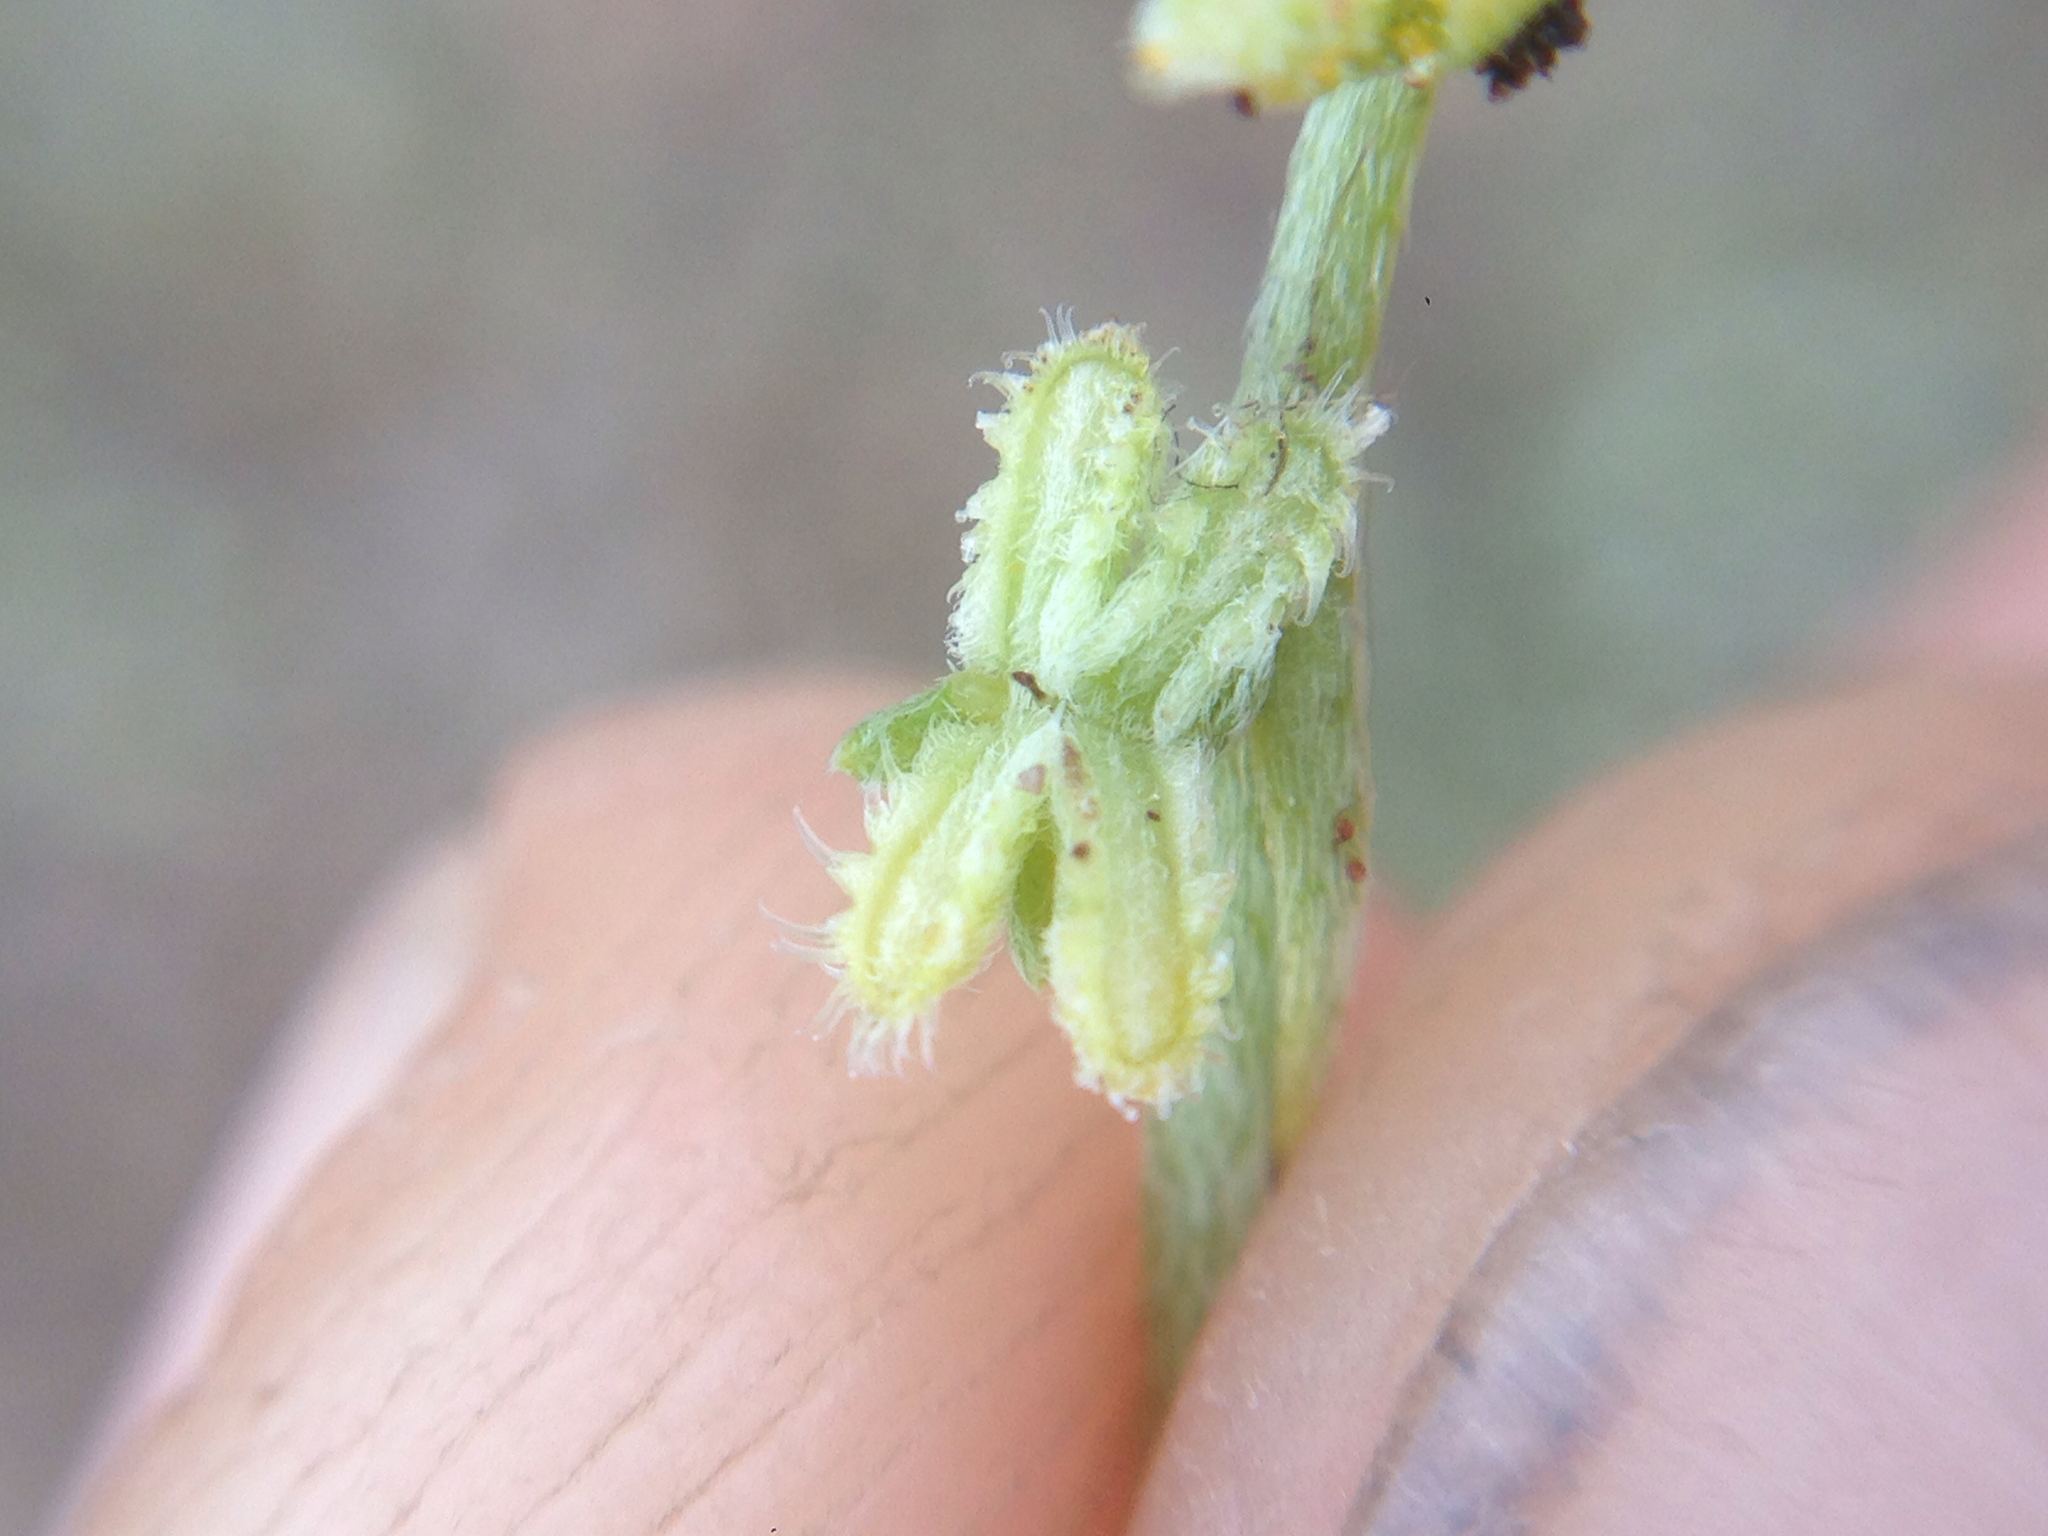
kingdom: Plantae
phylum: Tracheophyta
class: Magnoliopsida
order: Boraginales
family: Boraginaceae
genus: Pectocarya
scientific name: Pectocarya linearis
